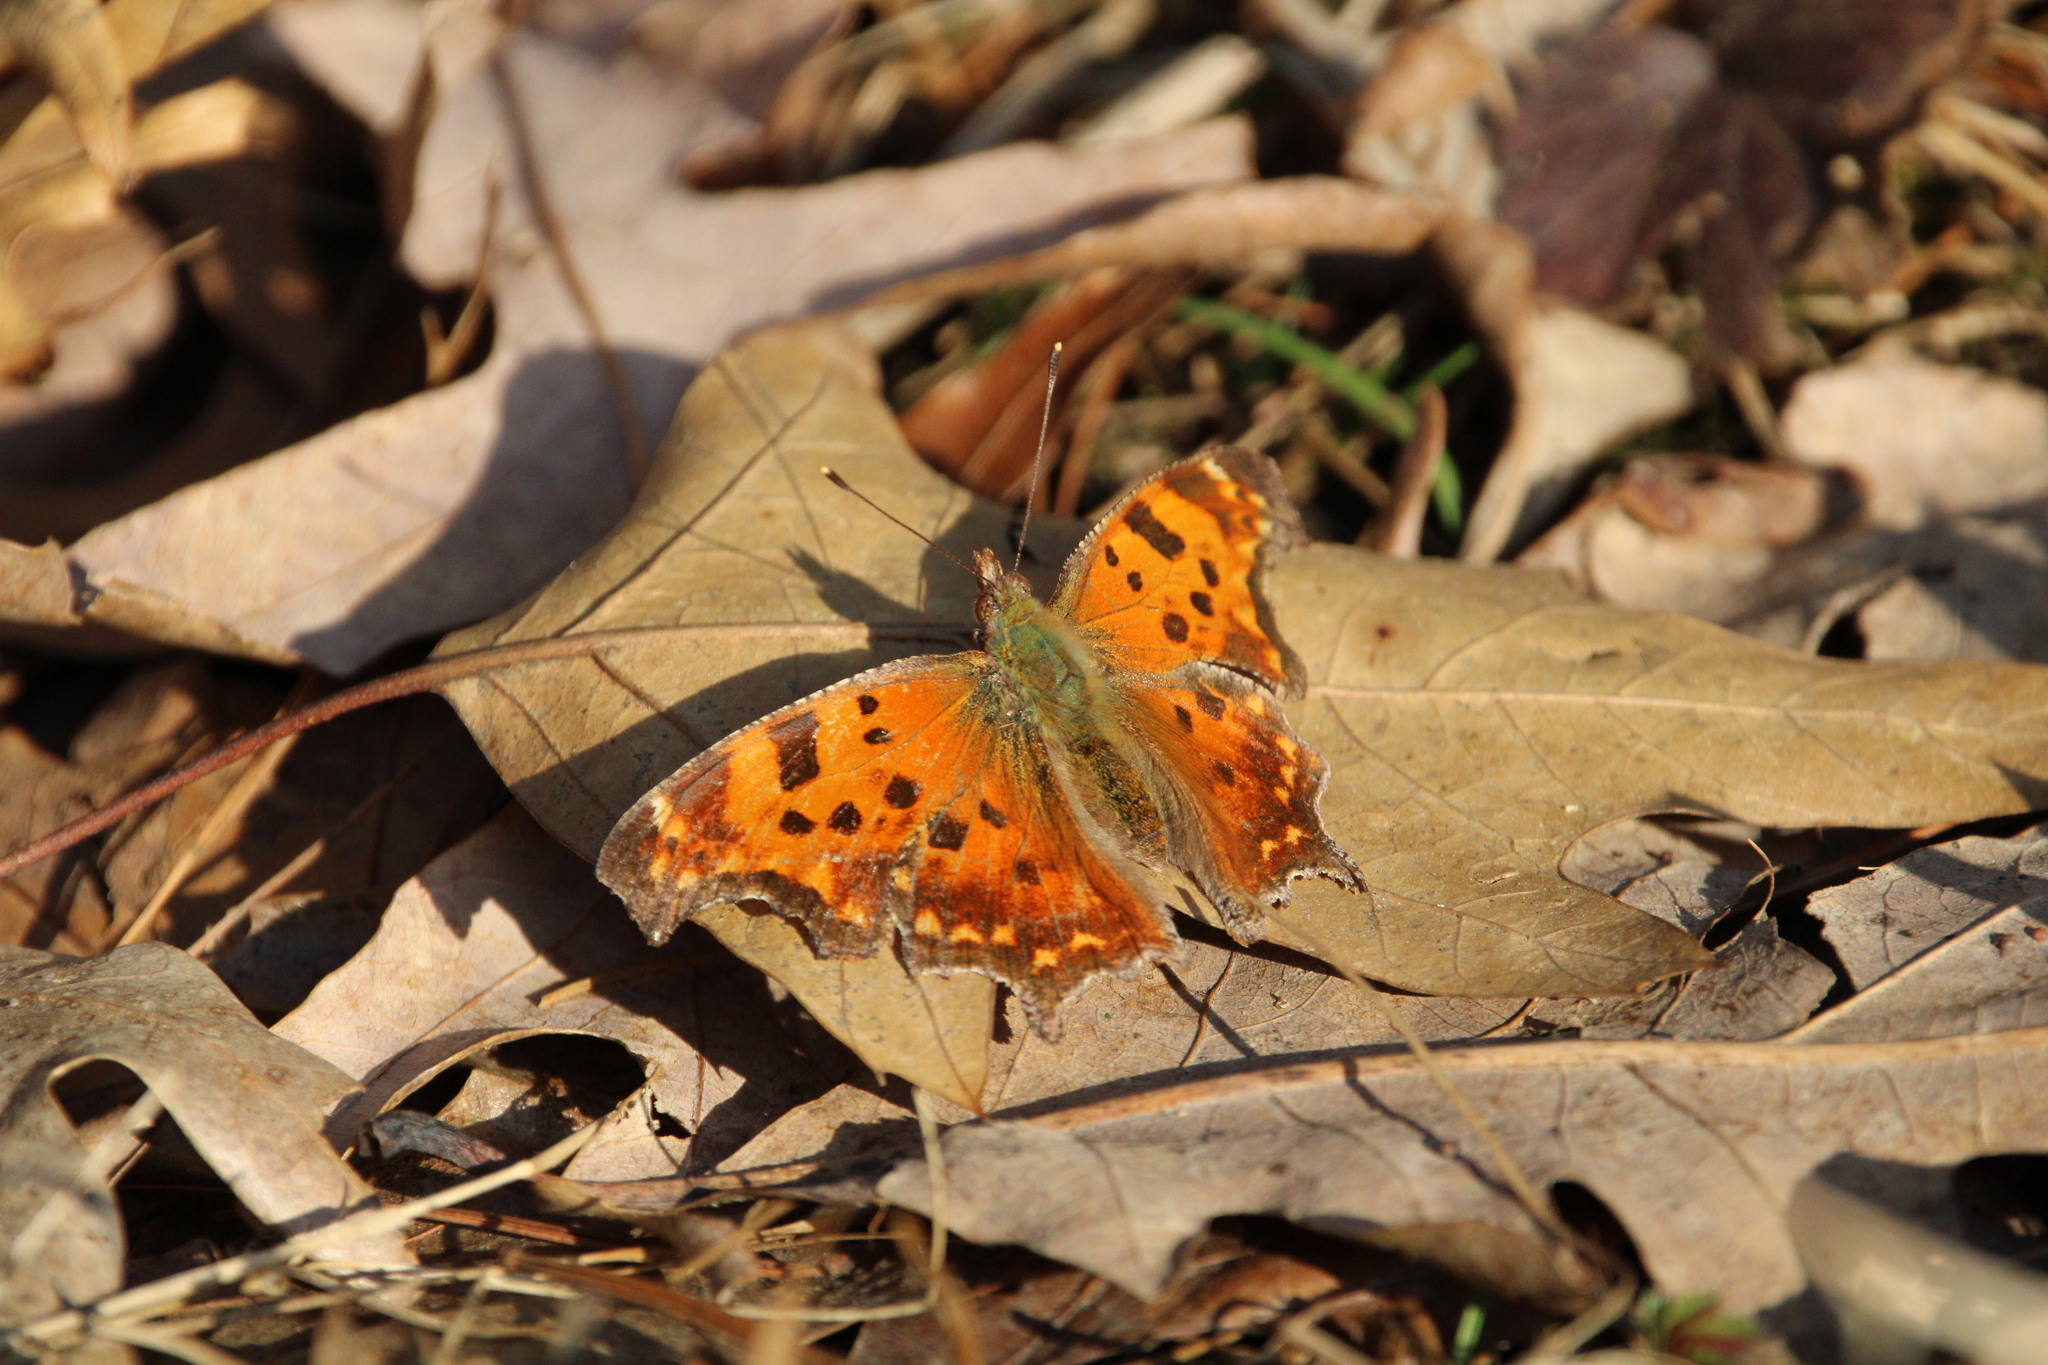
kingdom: Animalia
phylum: Arthropoda
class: Insecta
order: Lepidoptera
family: Nymphalidae
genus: Polygonia
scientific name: Polygonia comma
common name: Eastern comma
